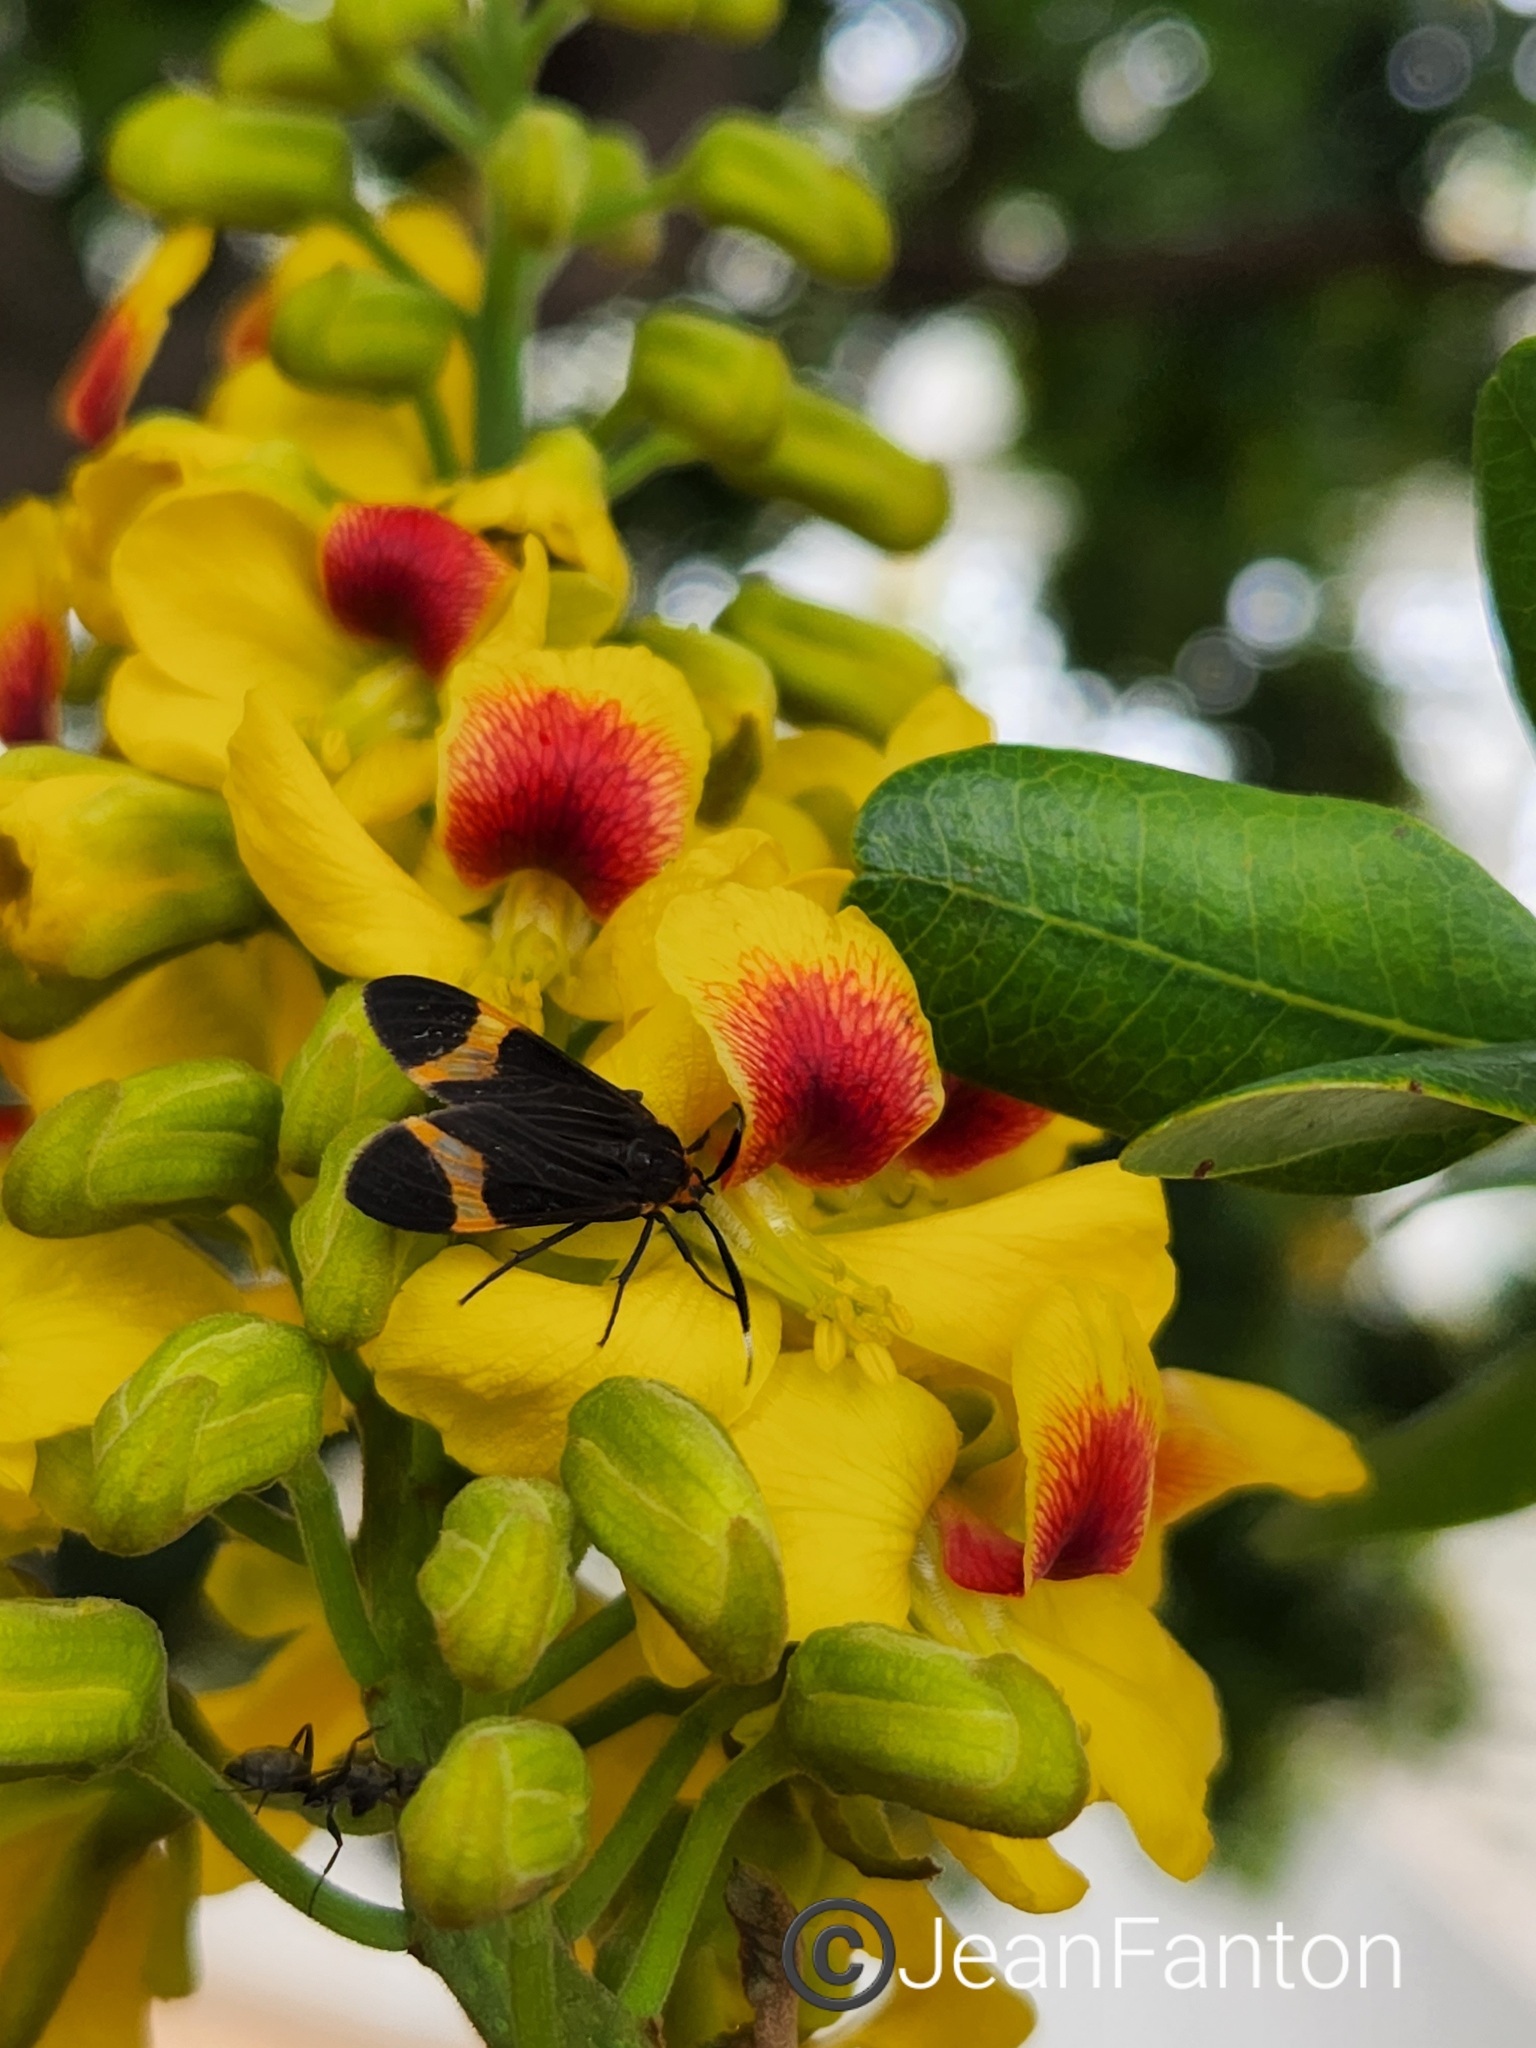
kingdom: Animalia
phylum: Arthropoda
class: Insecta
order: Lepidoptera
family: Erebidae
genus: Dycladia
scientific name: Dycladia lydia
